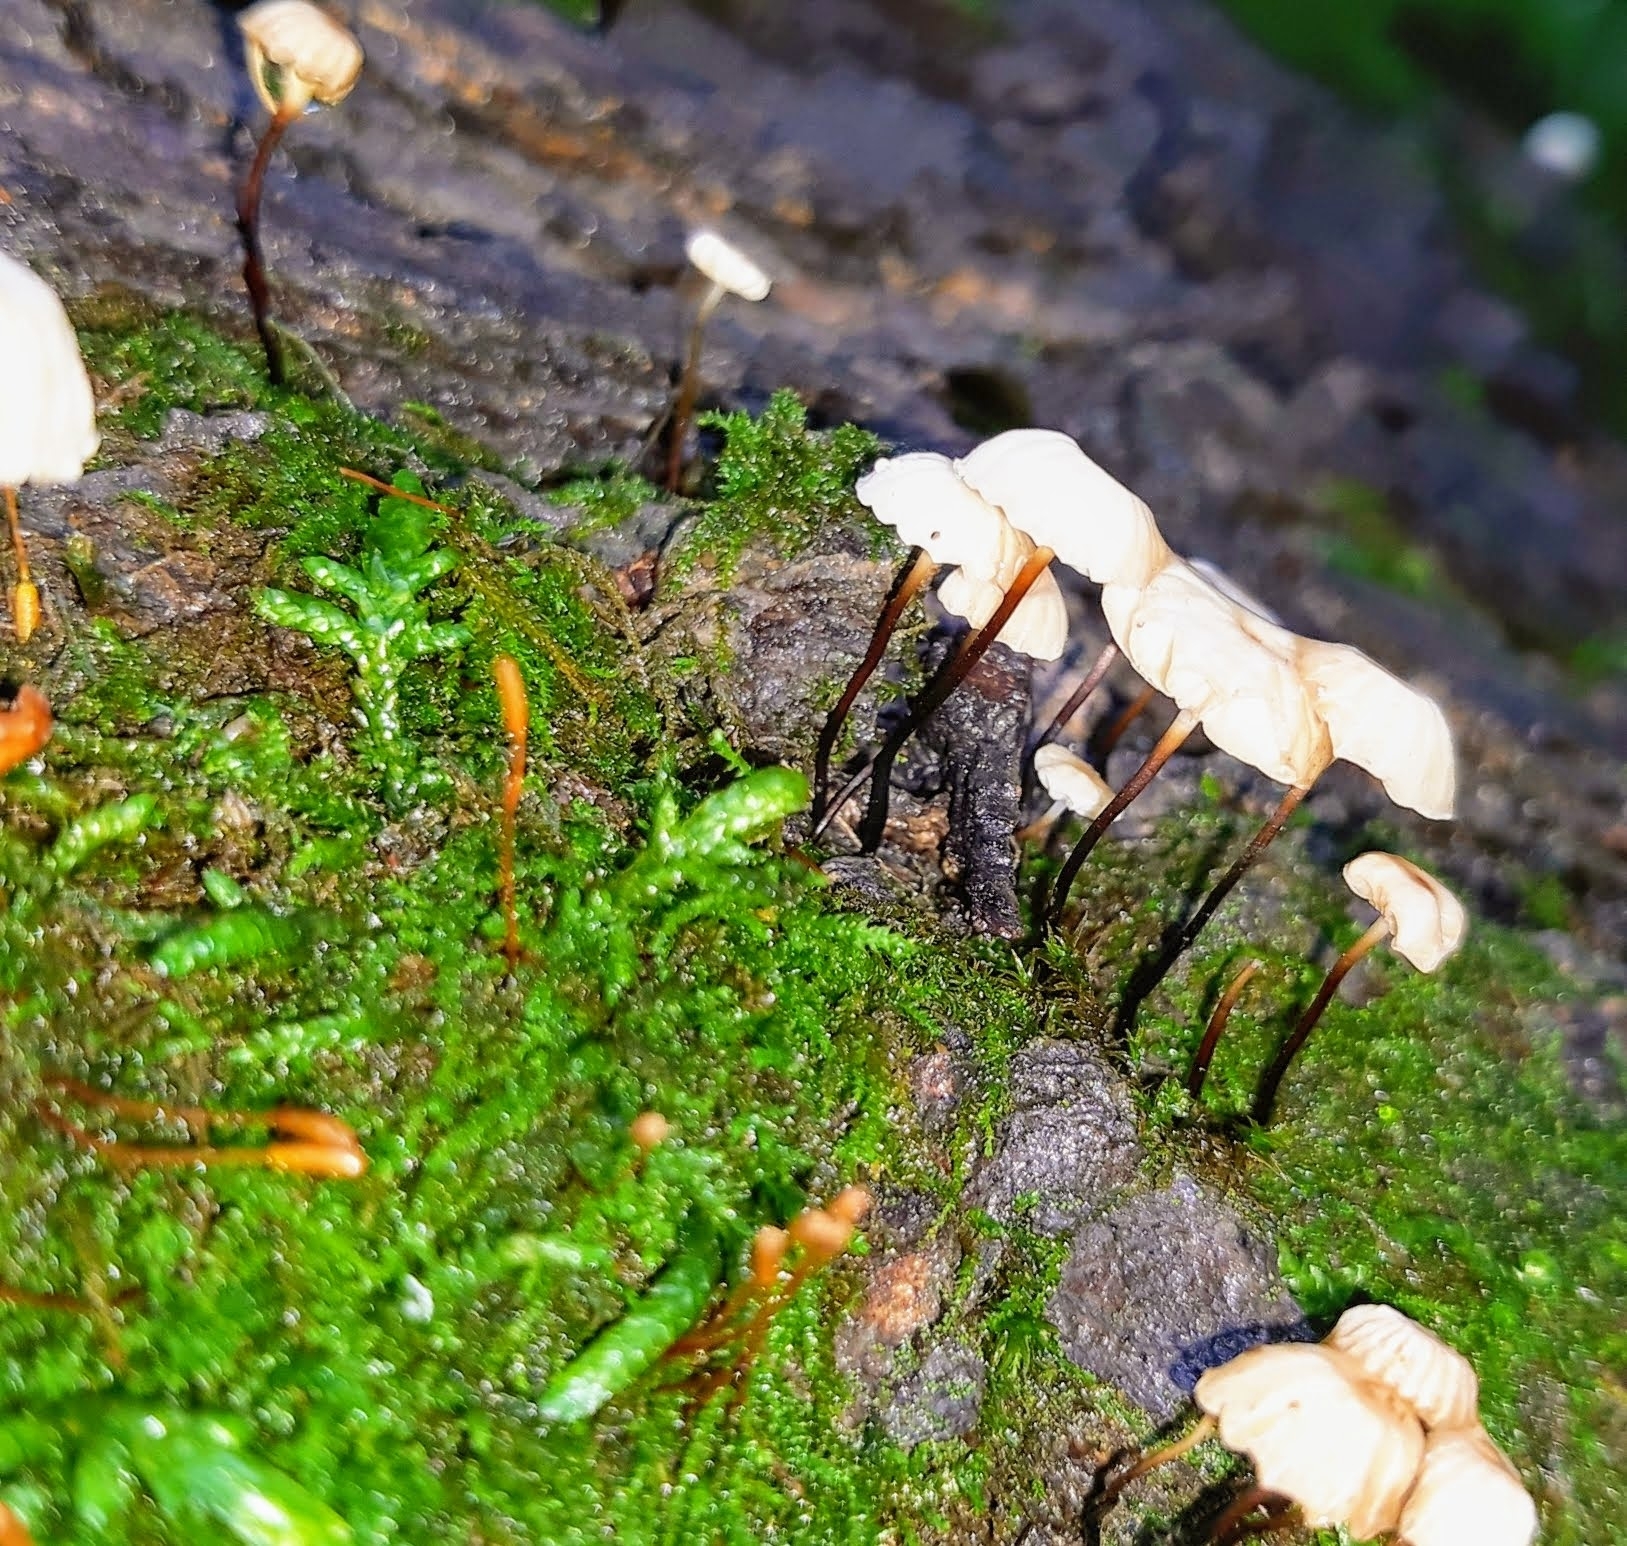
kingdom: Fungi
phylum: Basidiomycota
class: Agaricomycetes
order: Agaricales
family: Marasmiaceae
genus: Marasmius
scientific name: Marasmius delectans
